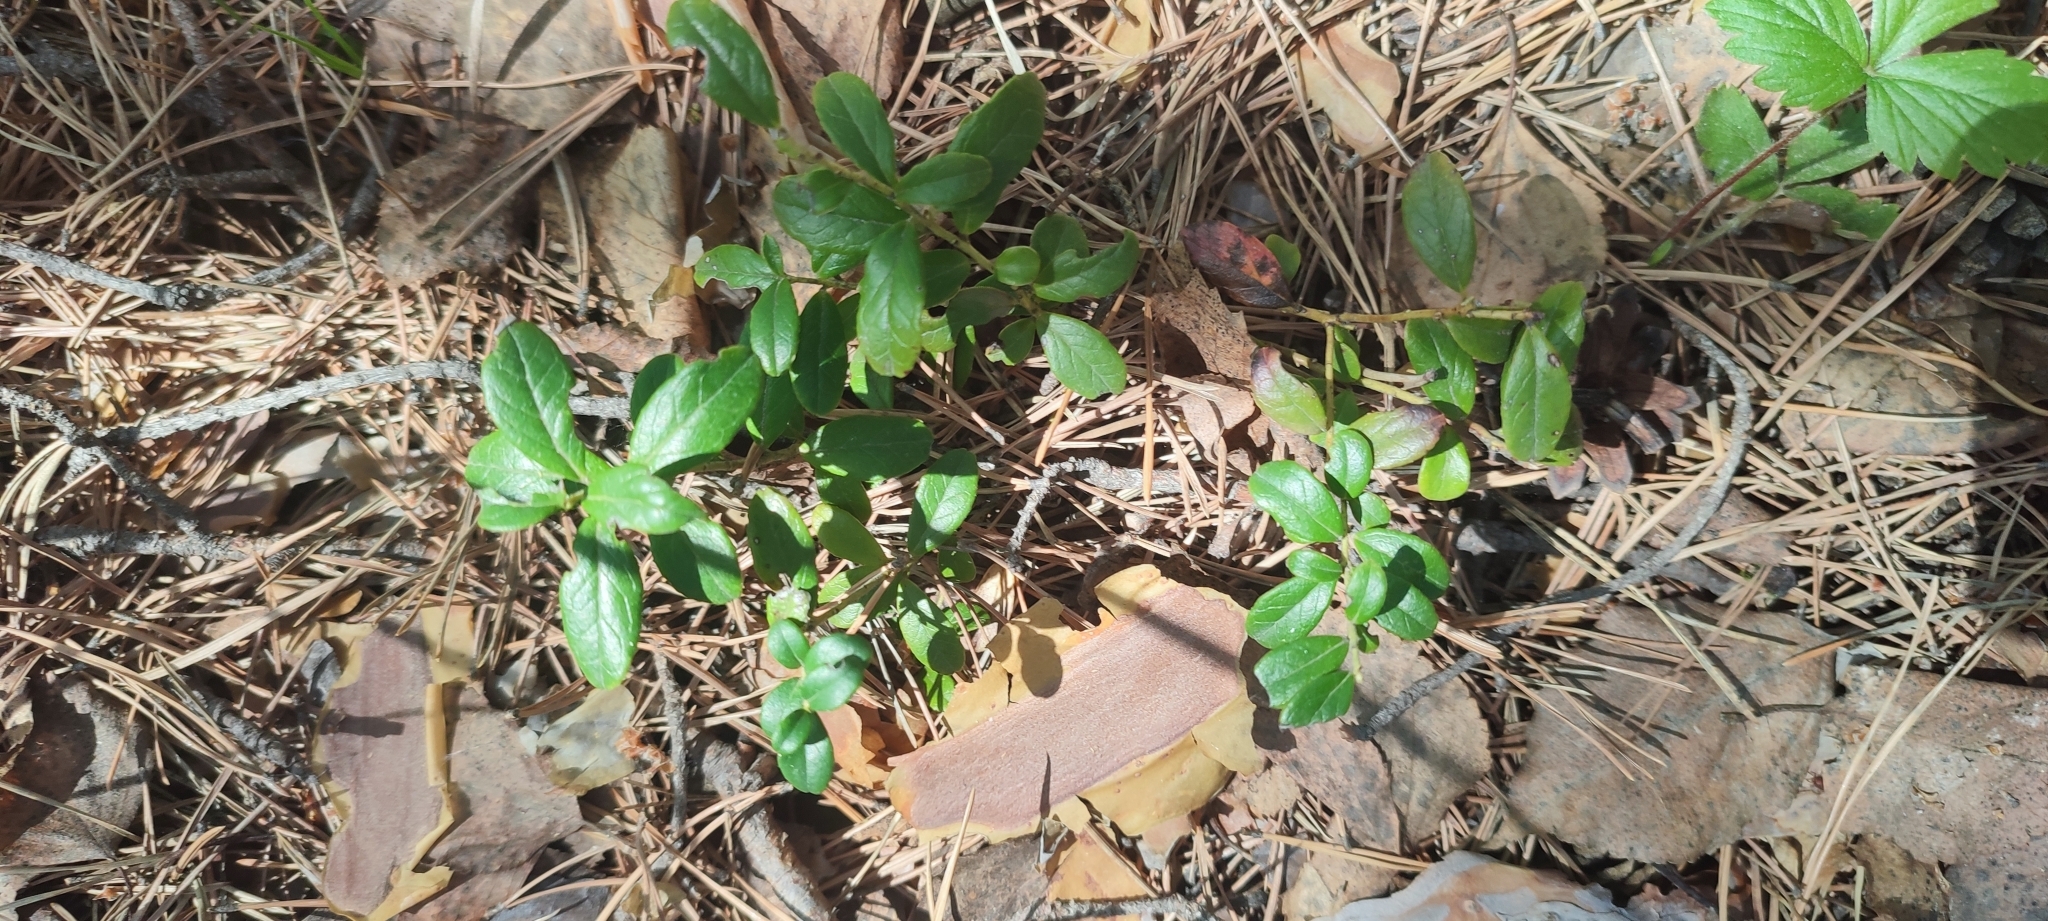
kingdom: Plantae
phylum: Tracheophyta
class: Magnoliopsida
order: Ericales
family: Ericaceae
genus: Vaccinium
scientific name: Vaccinium vitis-idaea
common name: Cowberry
